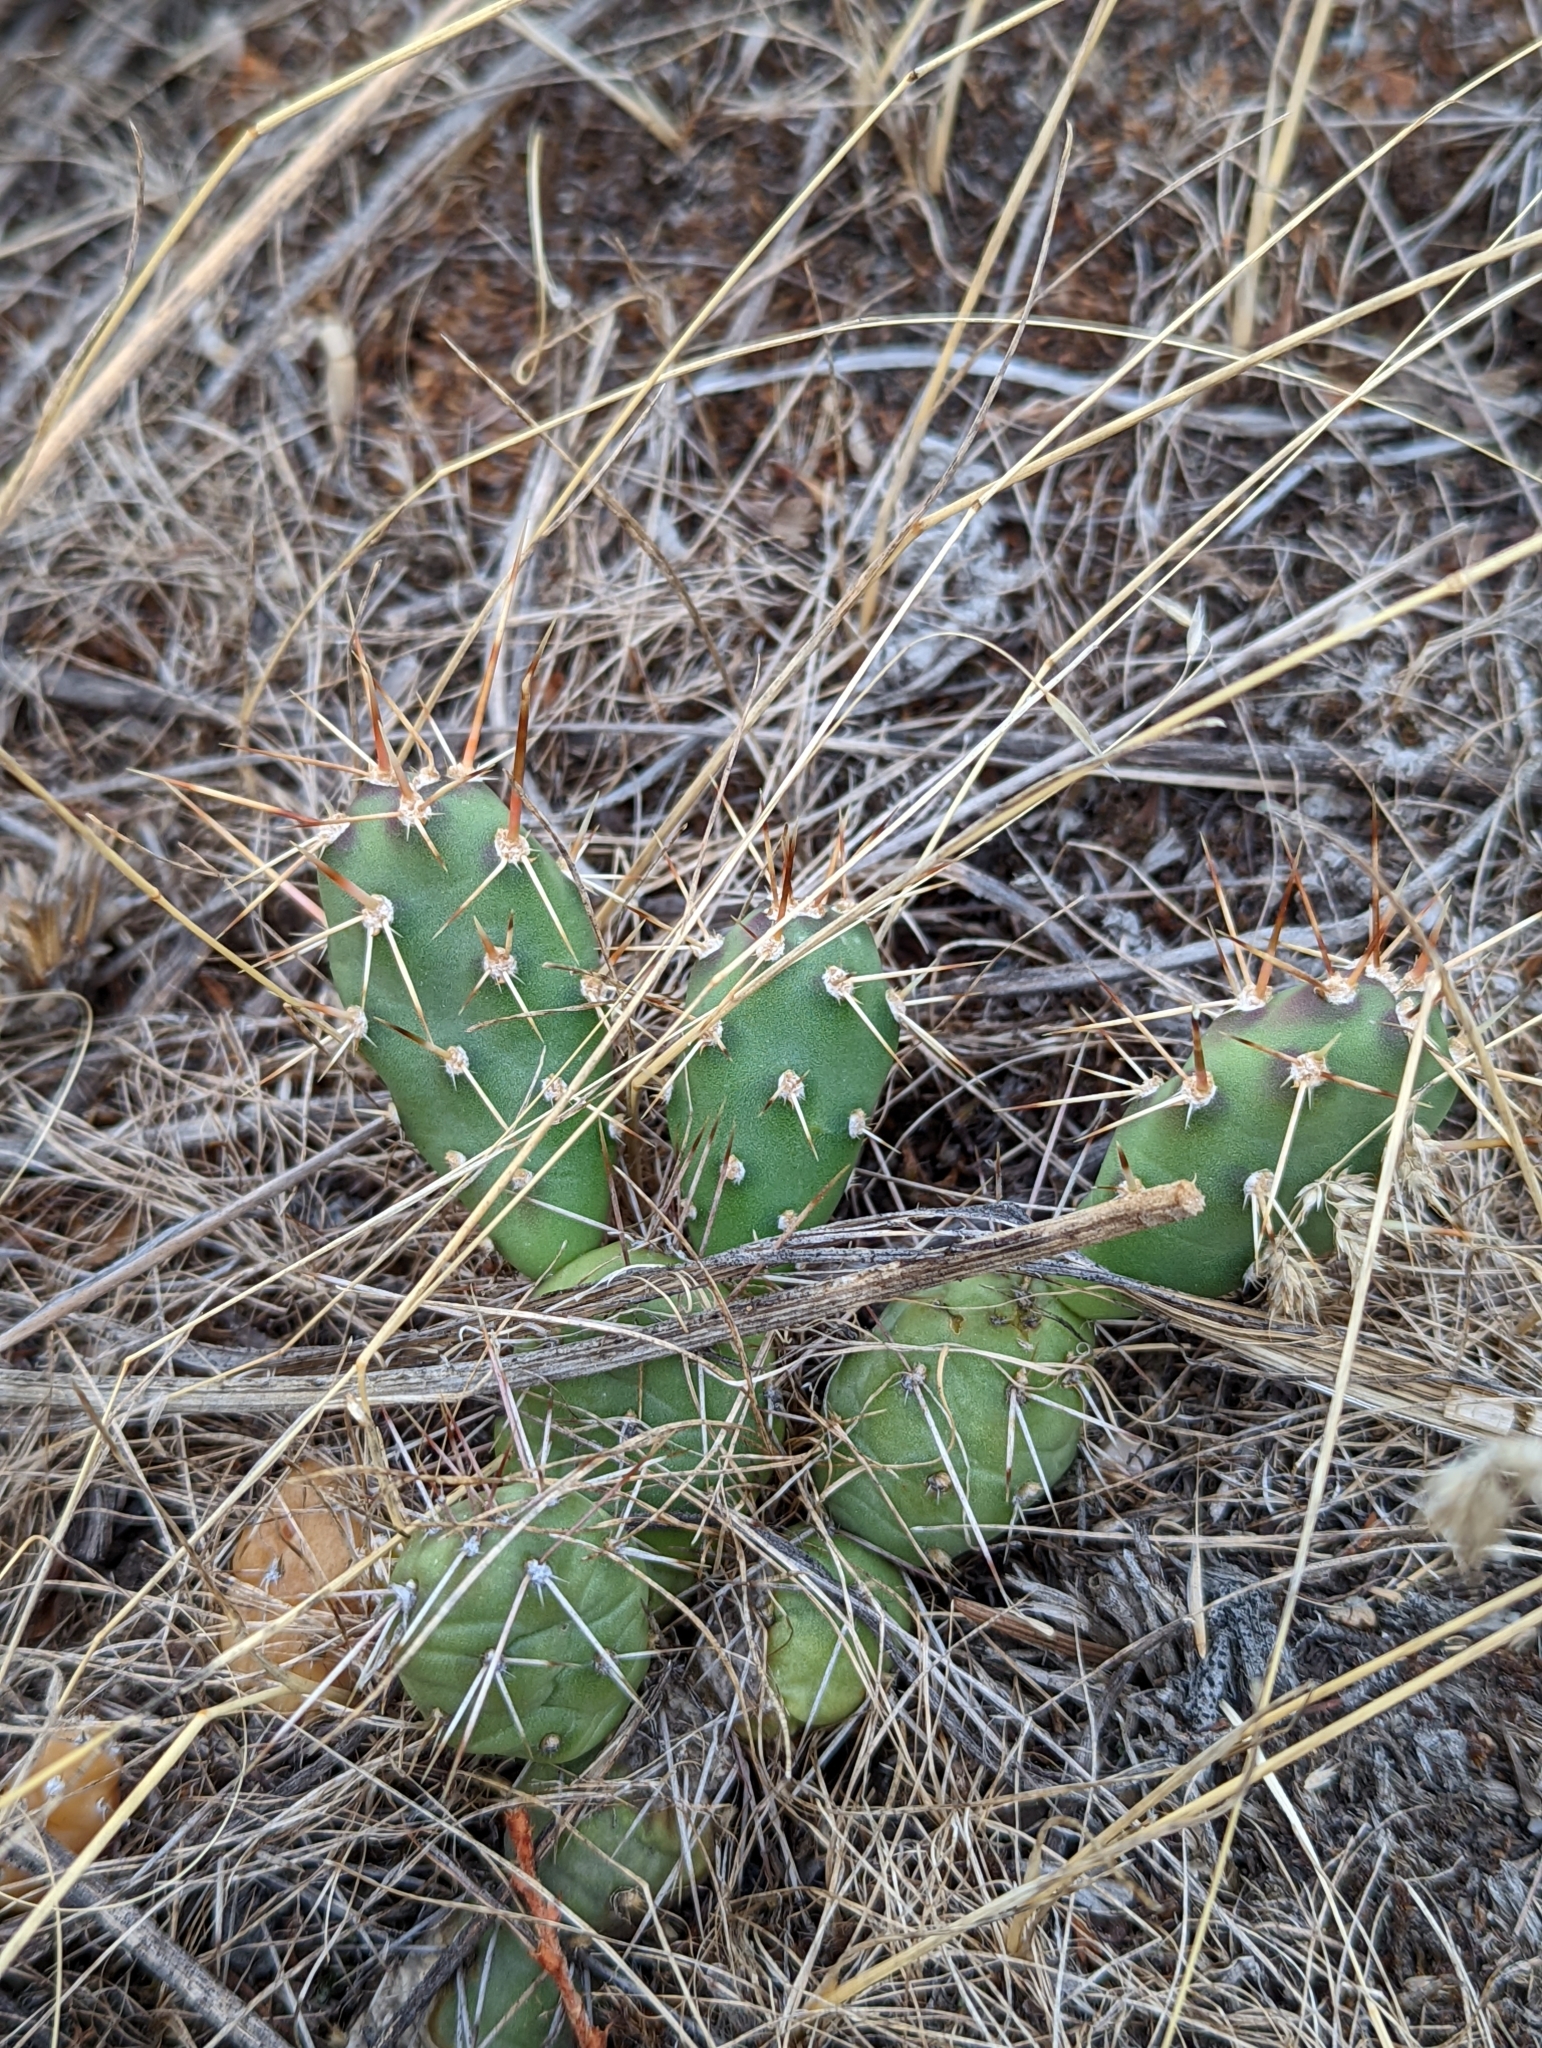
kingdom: Plantae
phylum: Tracheophyta
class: Magnoliopsida
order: Caryophyllales
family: Cactaceae
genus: Opuntia
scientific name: Opuntia fragilis
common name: Brittle cactus
